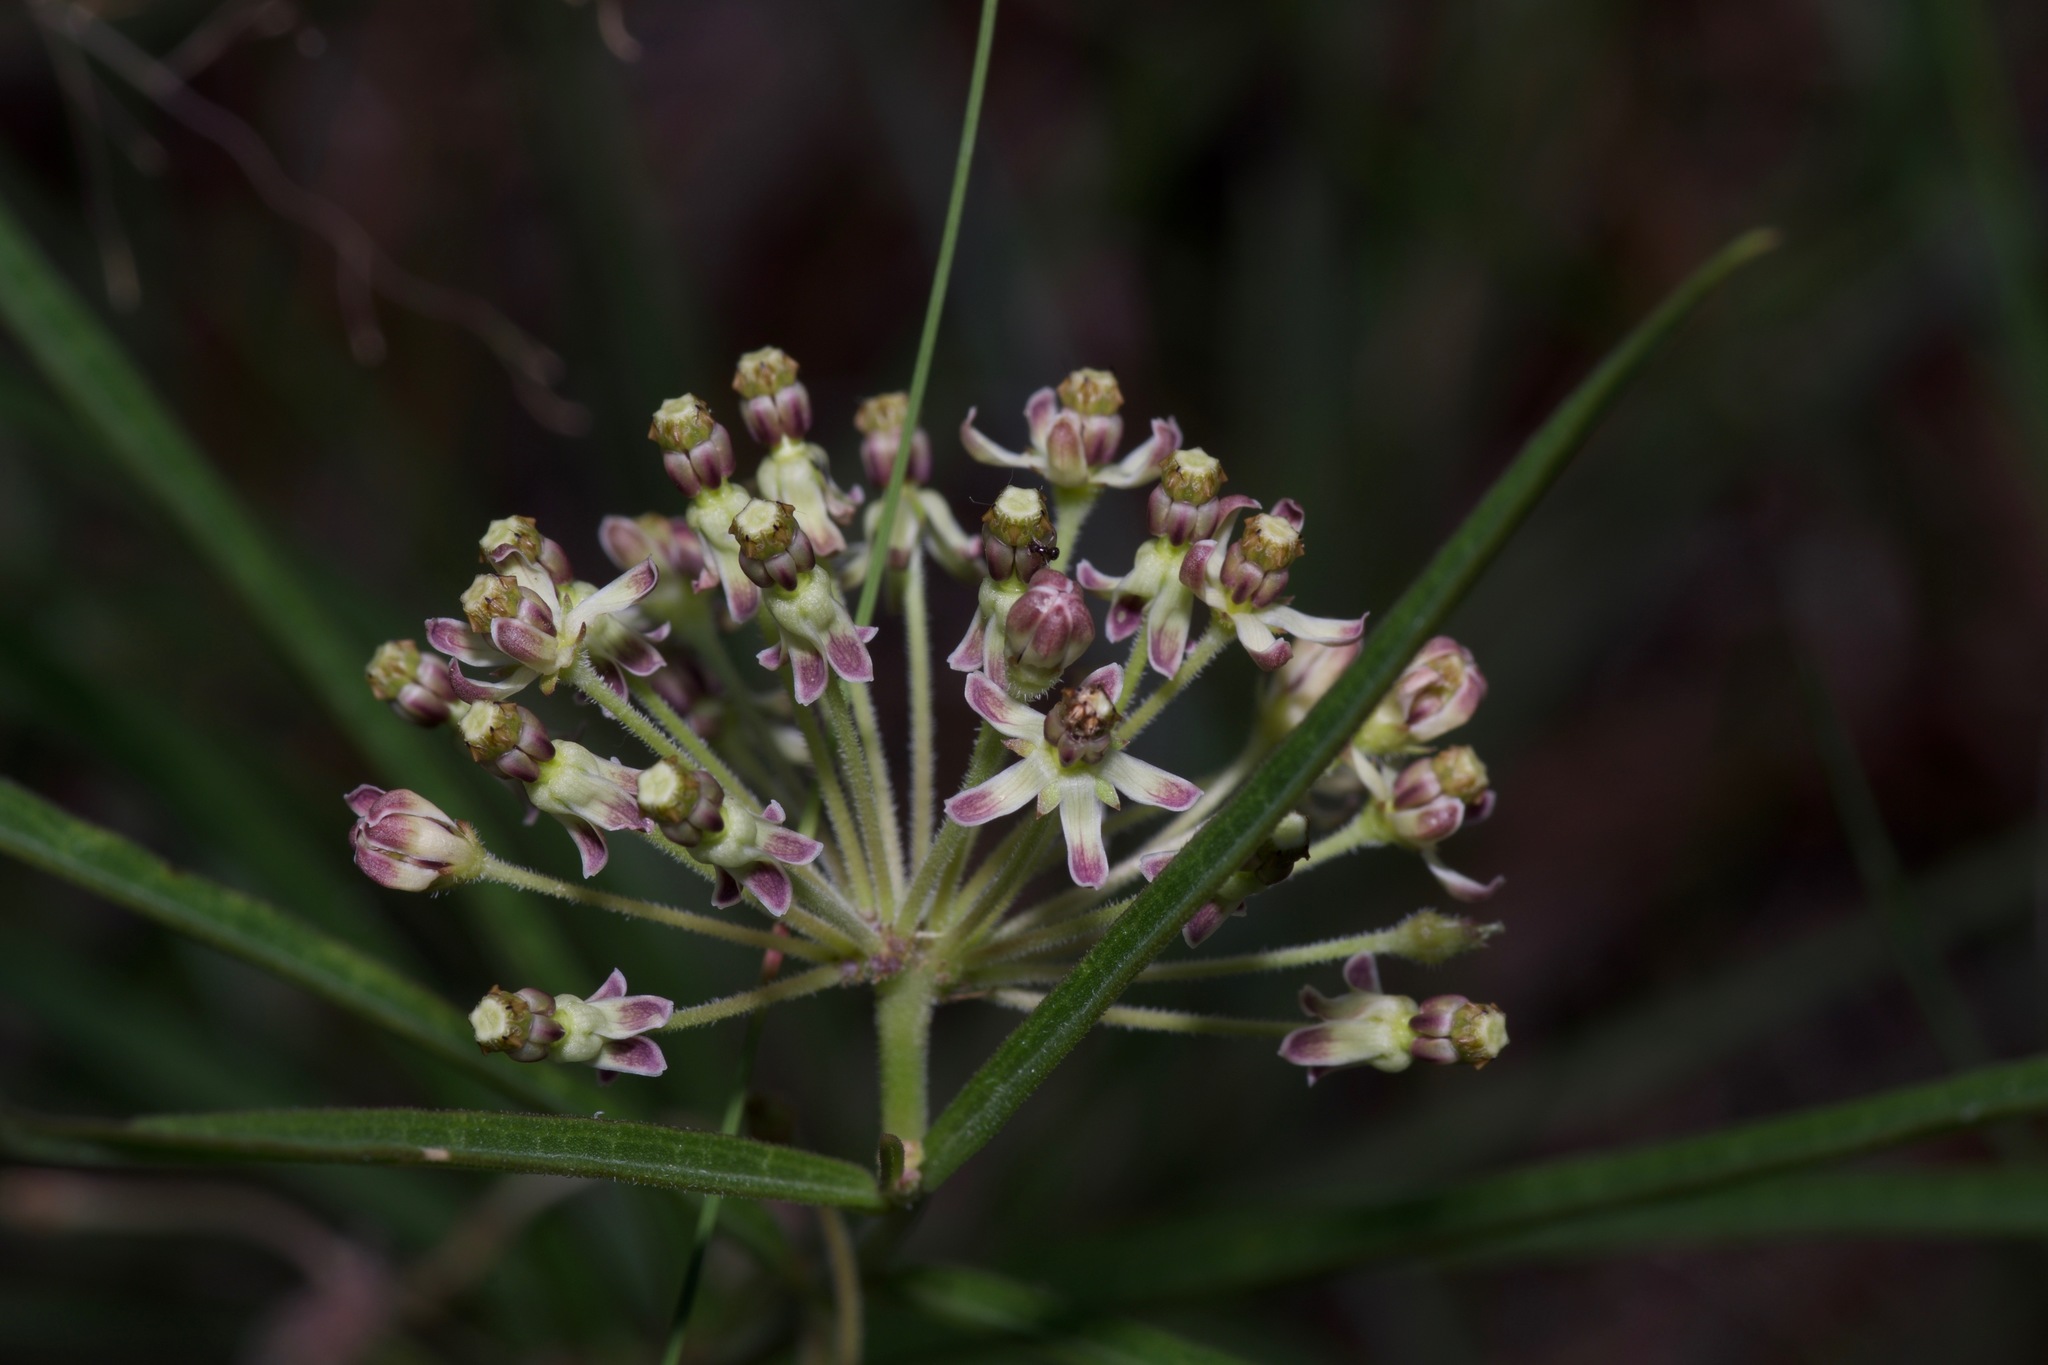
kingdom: Plantae
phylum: Tracheophyta
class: Magnoliopsida
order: Gentianales
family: Apocynaceae
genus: Asclepias
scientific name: Asclepias hirtella
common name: Prairie milkweed
